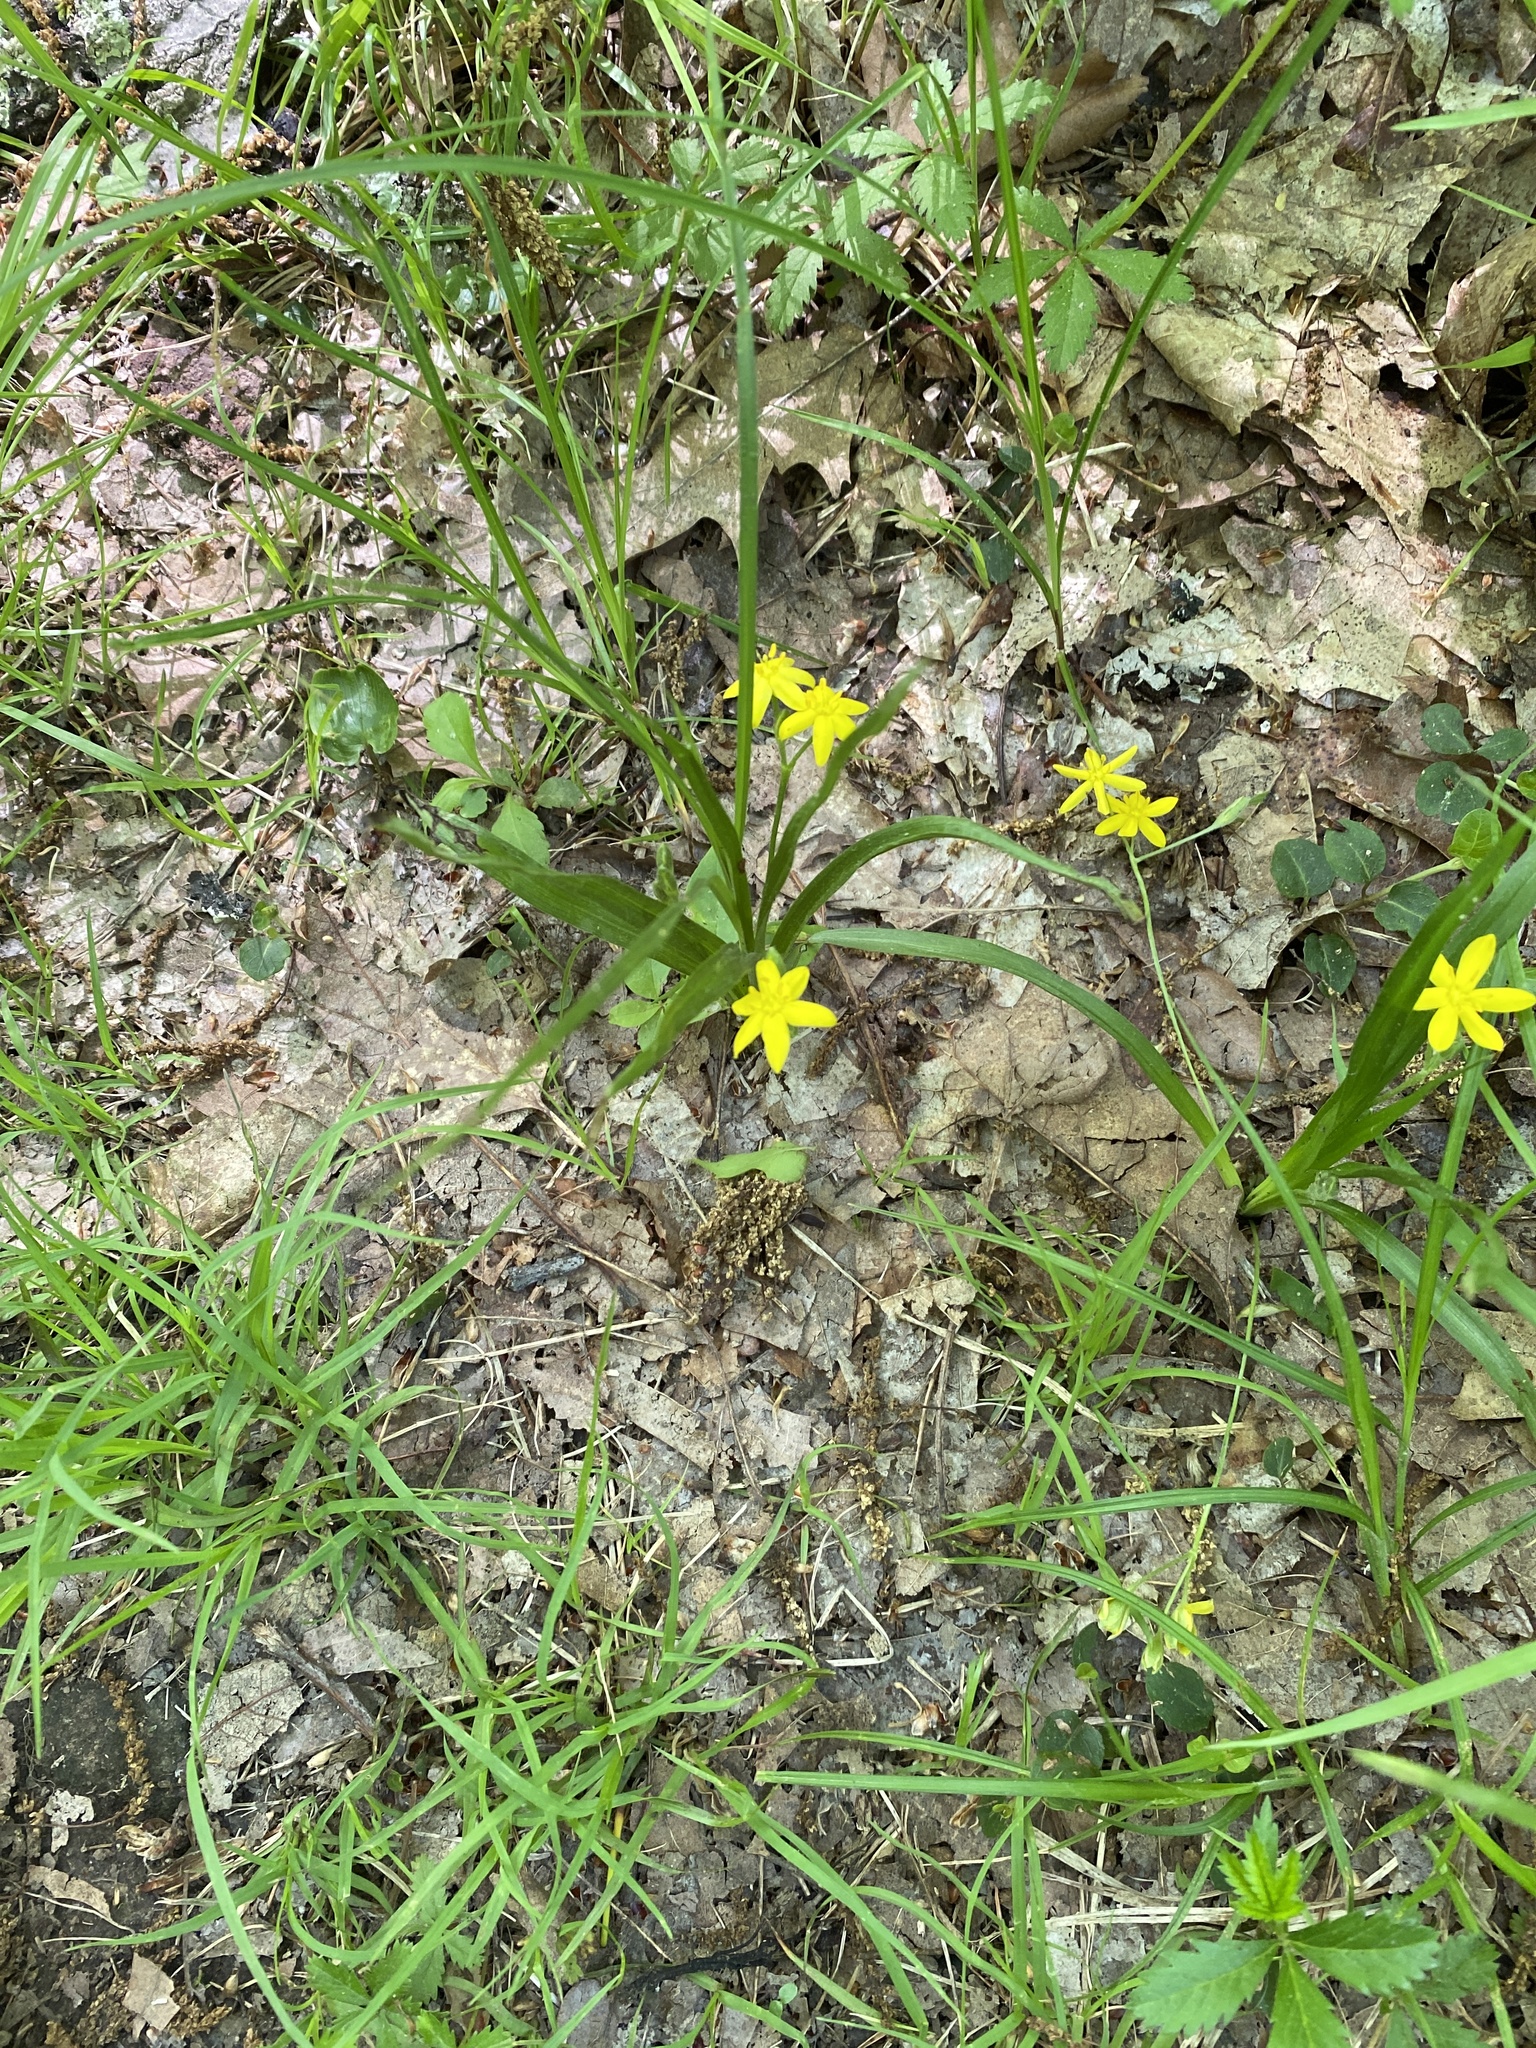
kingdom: Plantae
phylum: Tracheophyta
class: Liliopsida
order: Asparagales
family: Hypoxidaceae
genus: Hypoxis
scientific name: Hypoxis hirsuta
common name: Common goldstar
